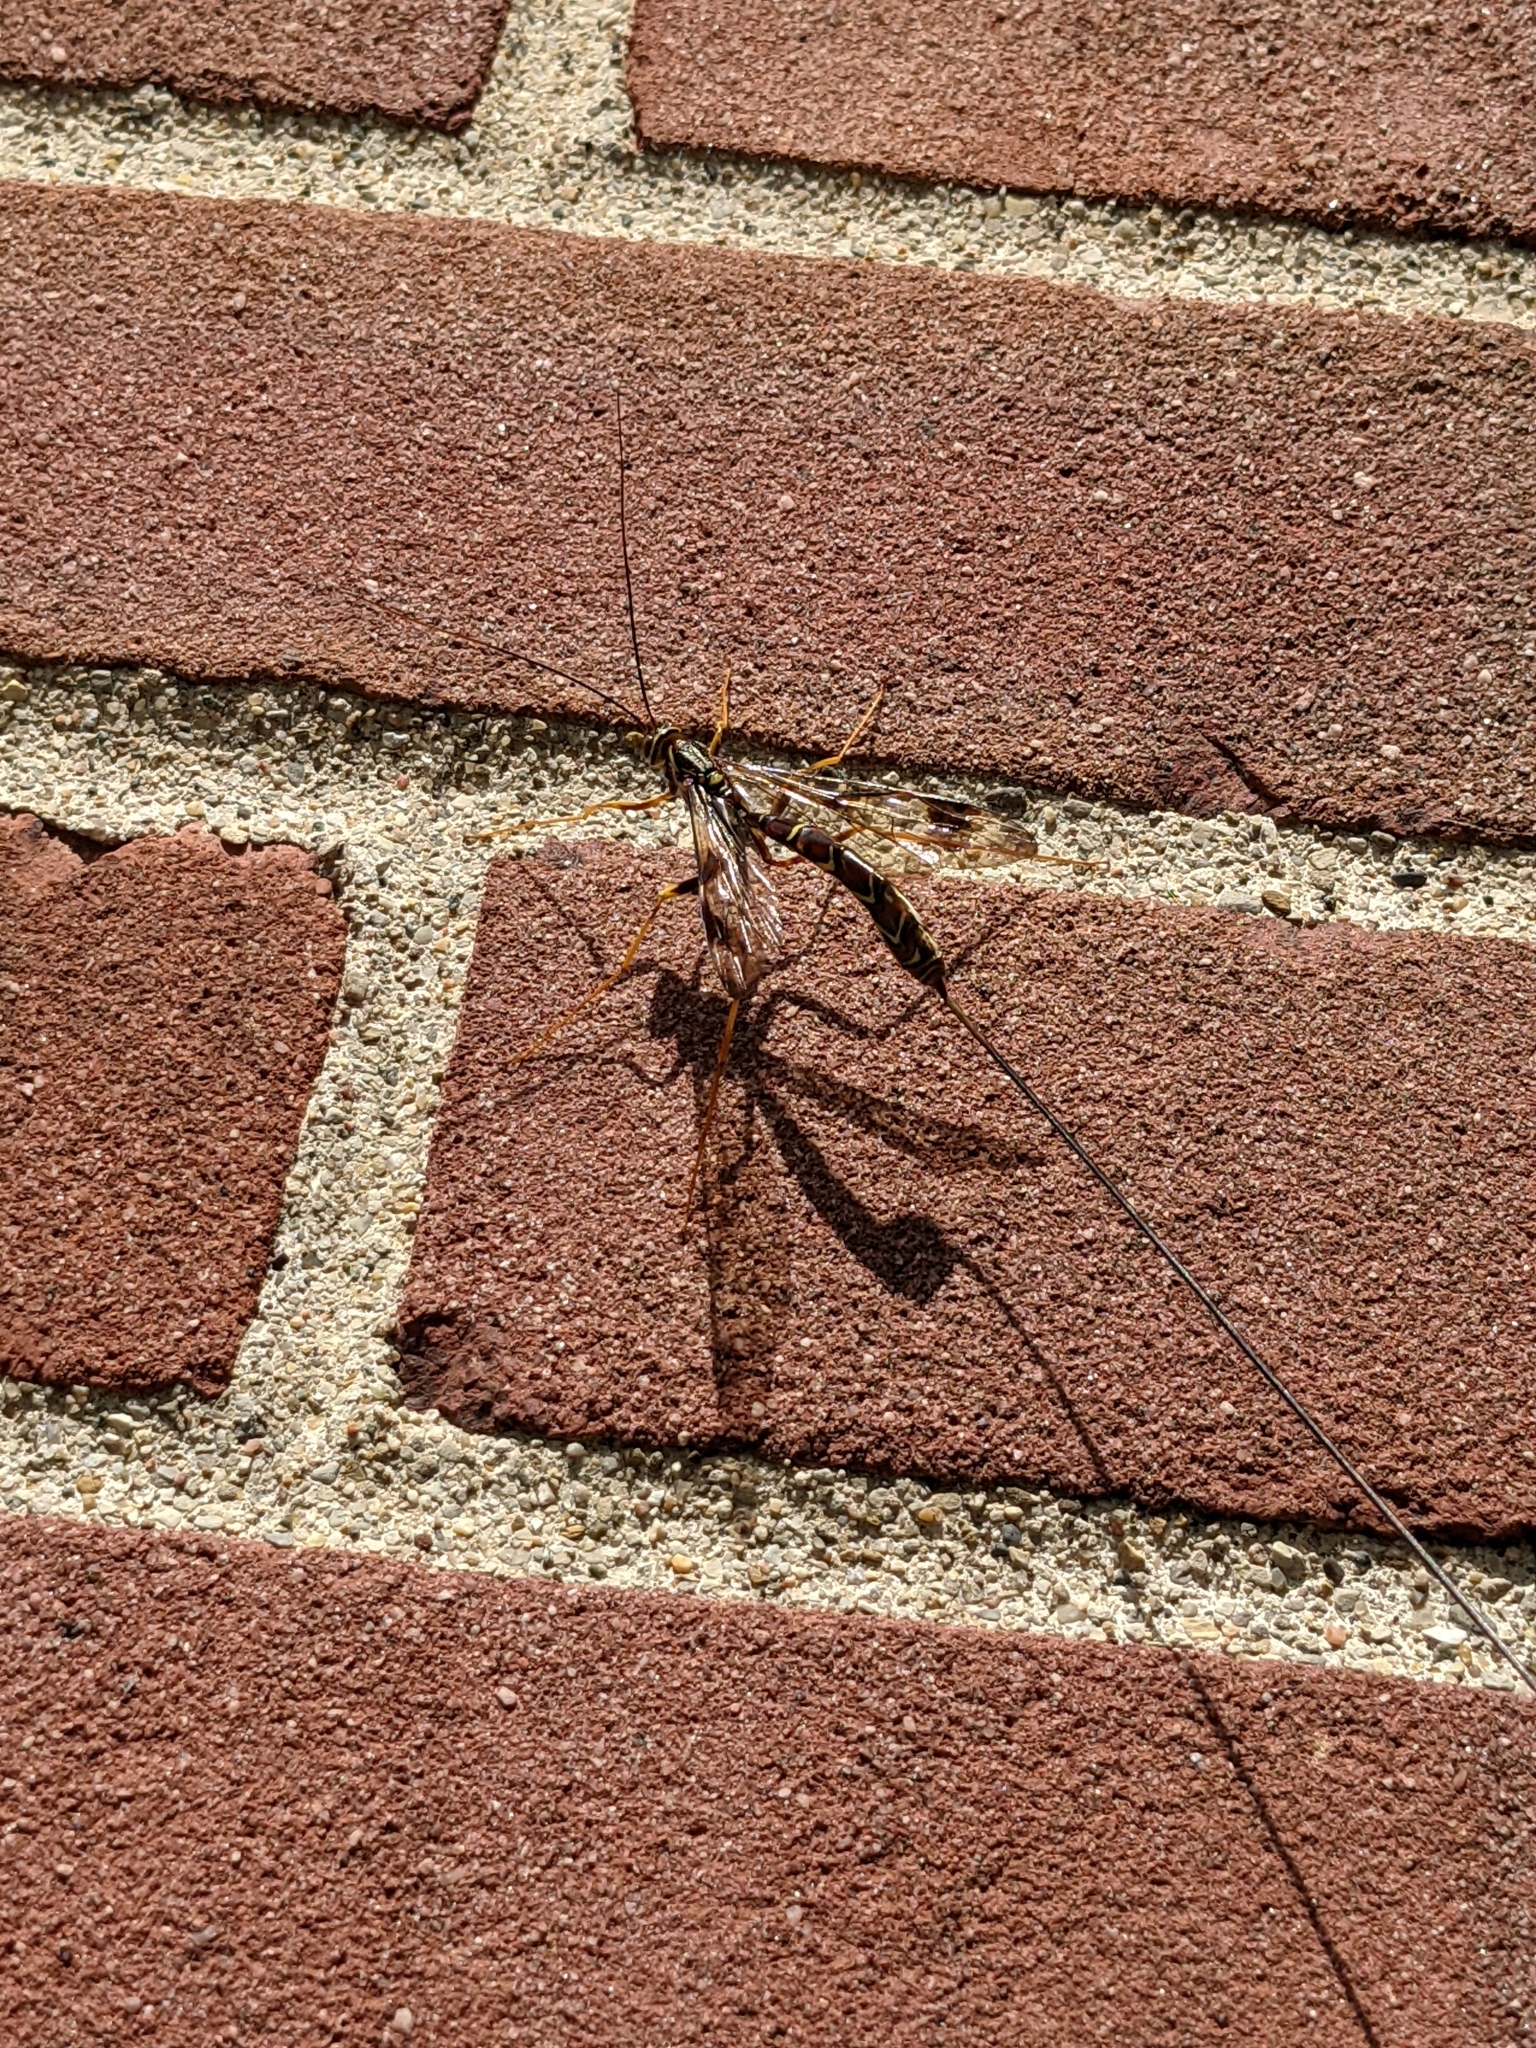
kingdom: Animalia
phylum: Arthropoda
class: Insecta
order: Hymenoptera
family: Ichneumonidae
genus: Megarhyssa
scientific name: Megarhyssa macrura
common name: Long-tailed giant ichneumonid wasp
